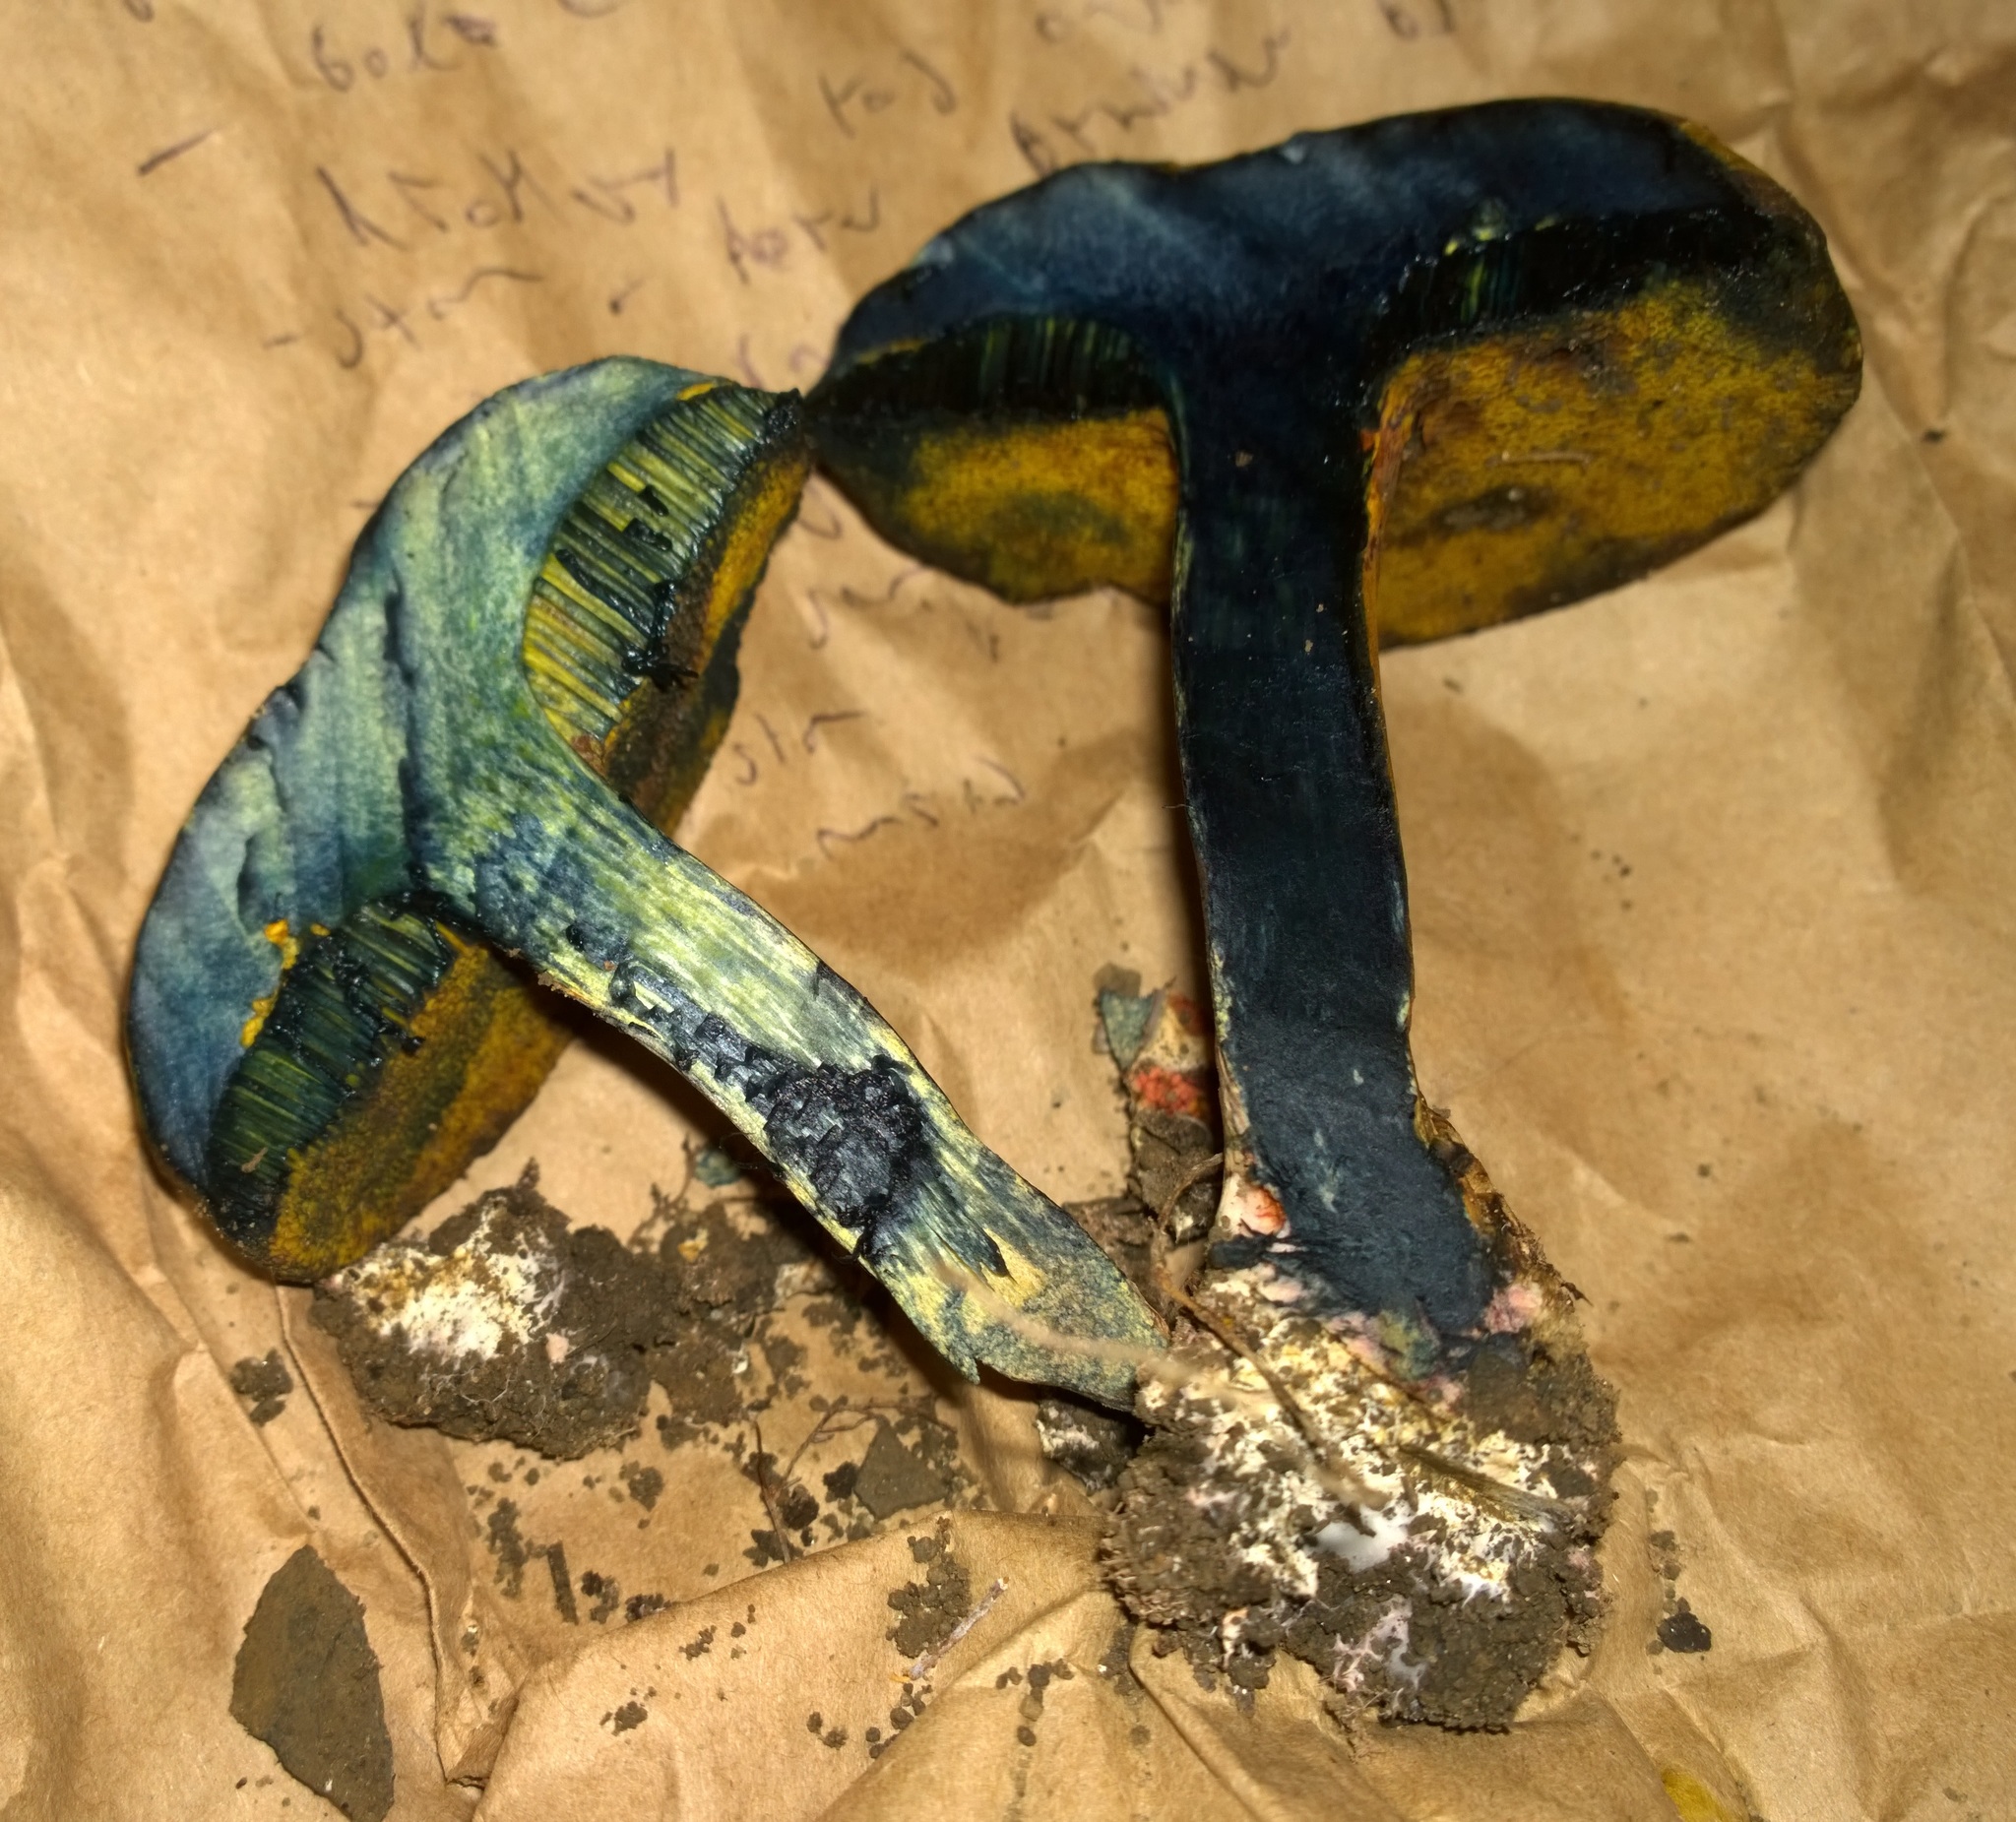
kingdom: Fungi
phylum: Basidiomycota
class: Agaricomycetes
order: Boletales
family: Boletaceae
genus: Cyanoboletus
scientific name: Cyanoboletus pulverulentus
